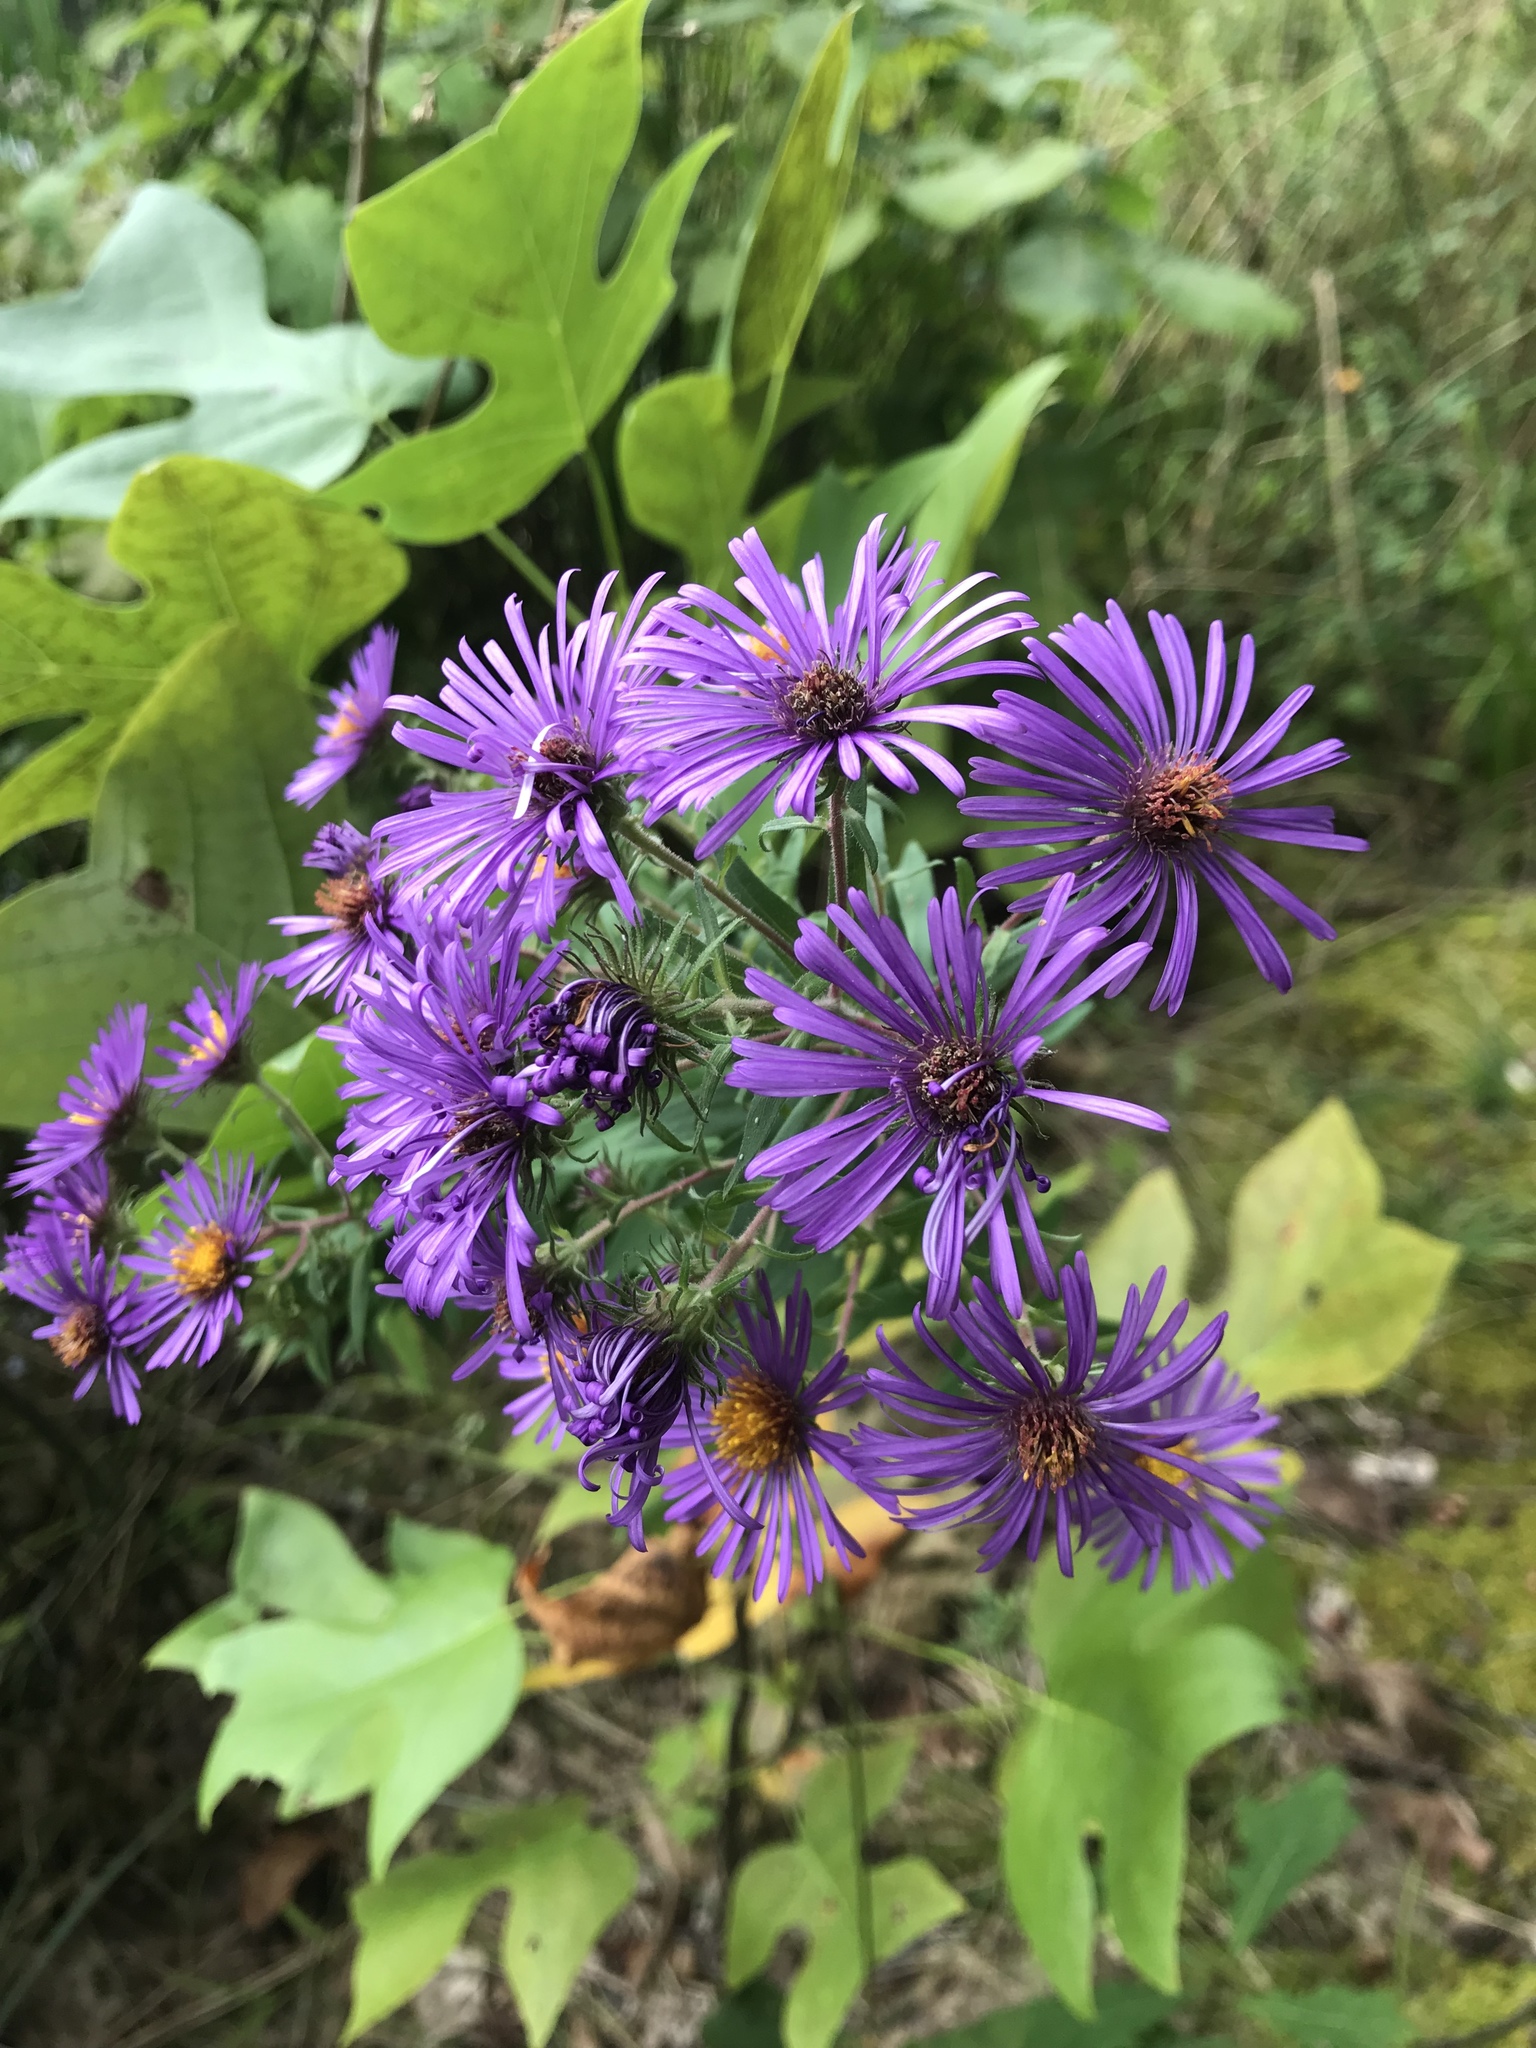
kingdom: Plantae
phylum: Tracheophyta
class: Magnoliopsida
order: Asterales
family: Asteraceae
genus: Symphyotrichum
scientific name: Symphyotrichum novae-angliae
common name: Michaelmas daisy
